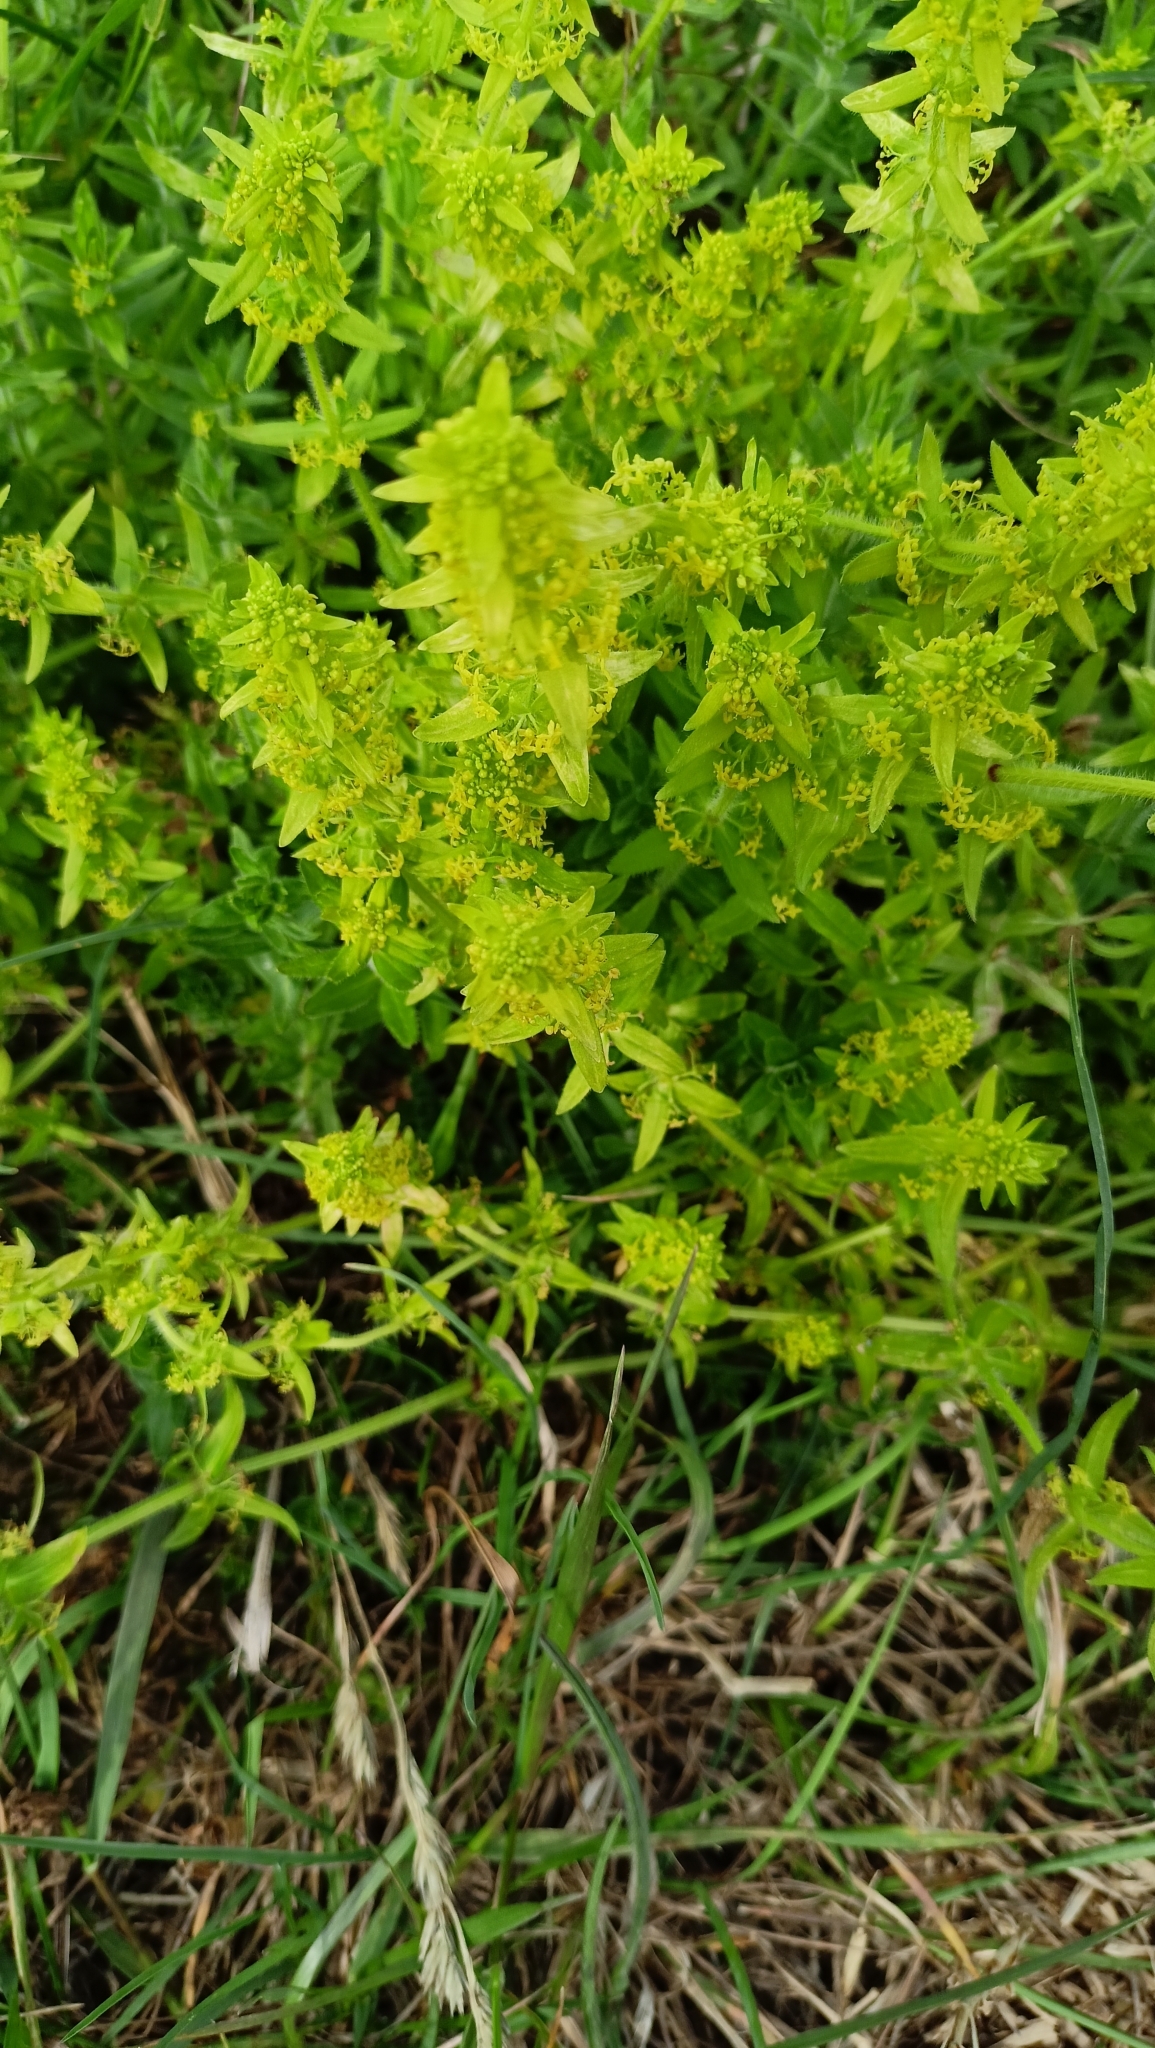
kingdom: Plantae
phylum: Tracheophyta
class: Magnoliopsida
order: Gentianales
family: Rubiaceae
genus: Cruciata
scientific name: Cruciata laevipes
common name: Crosswort
